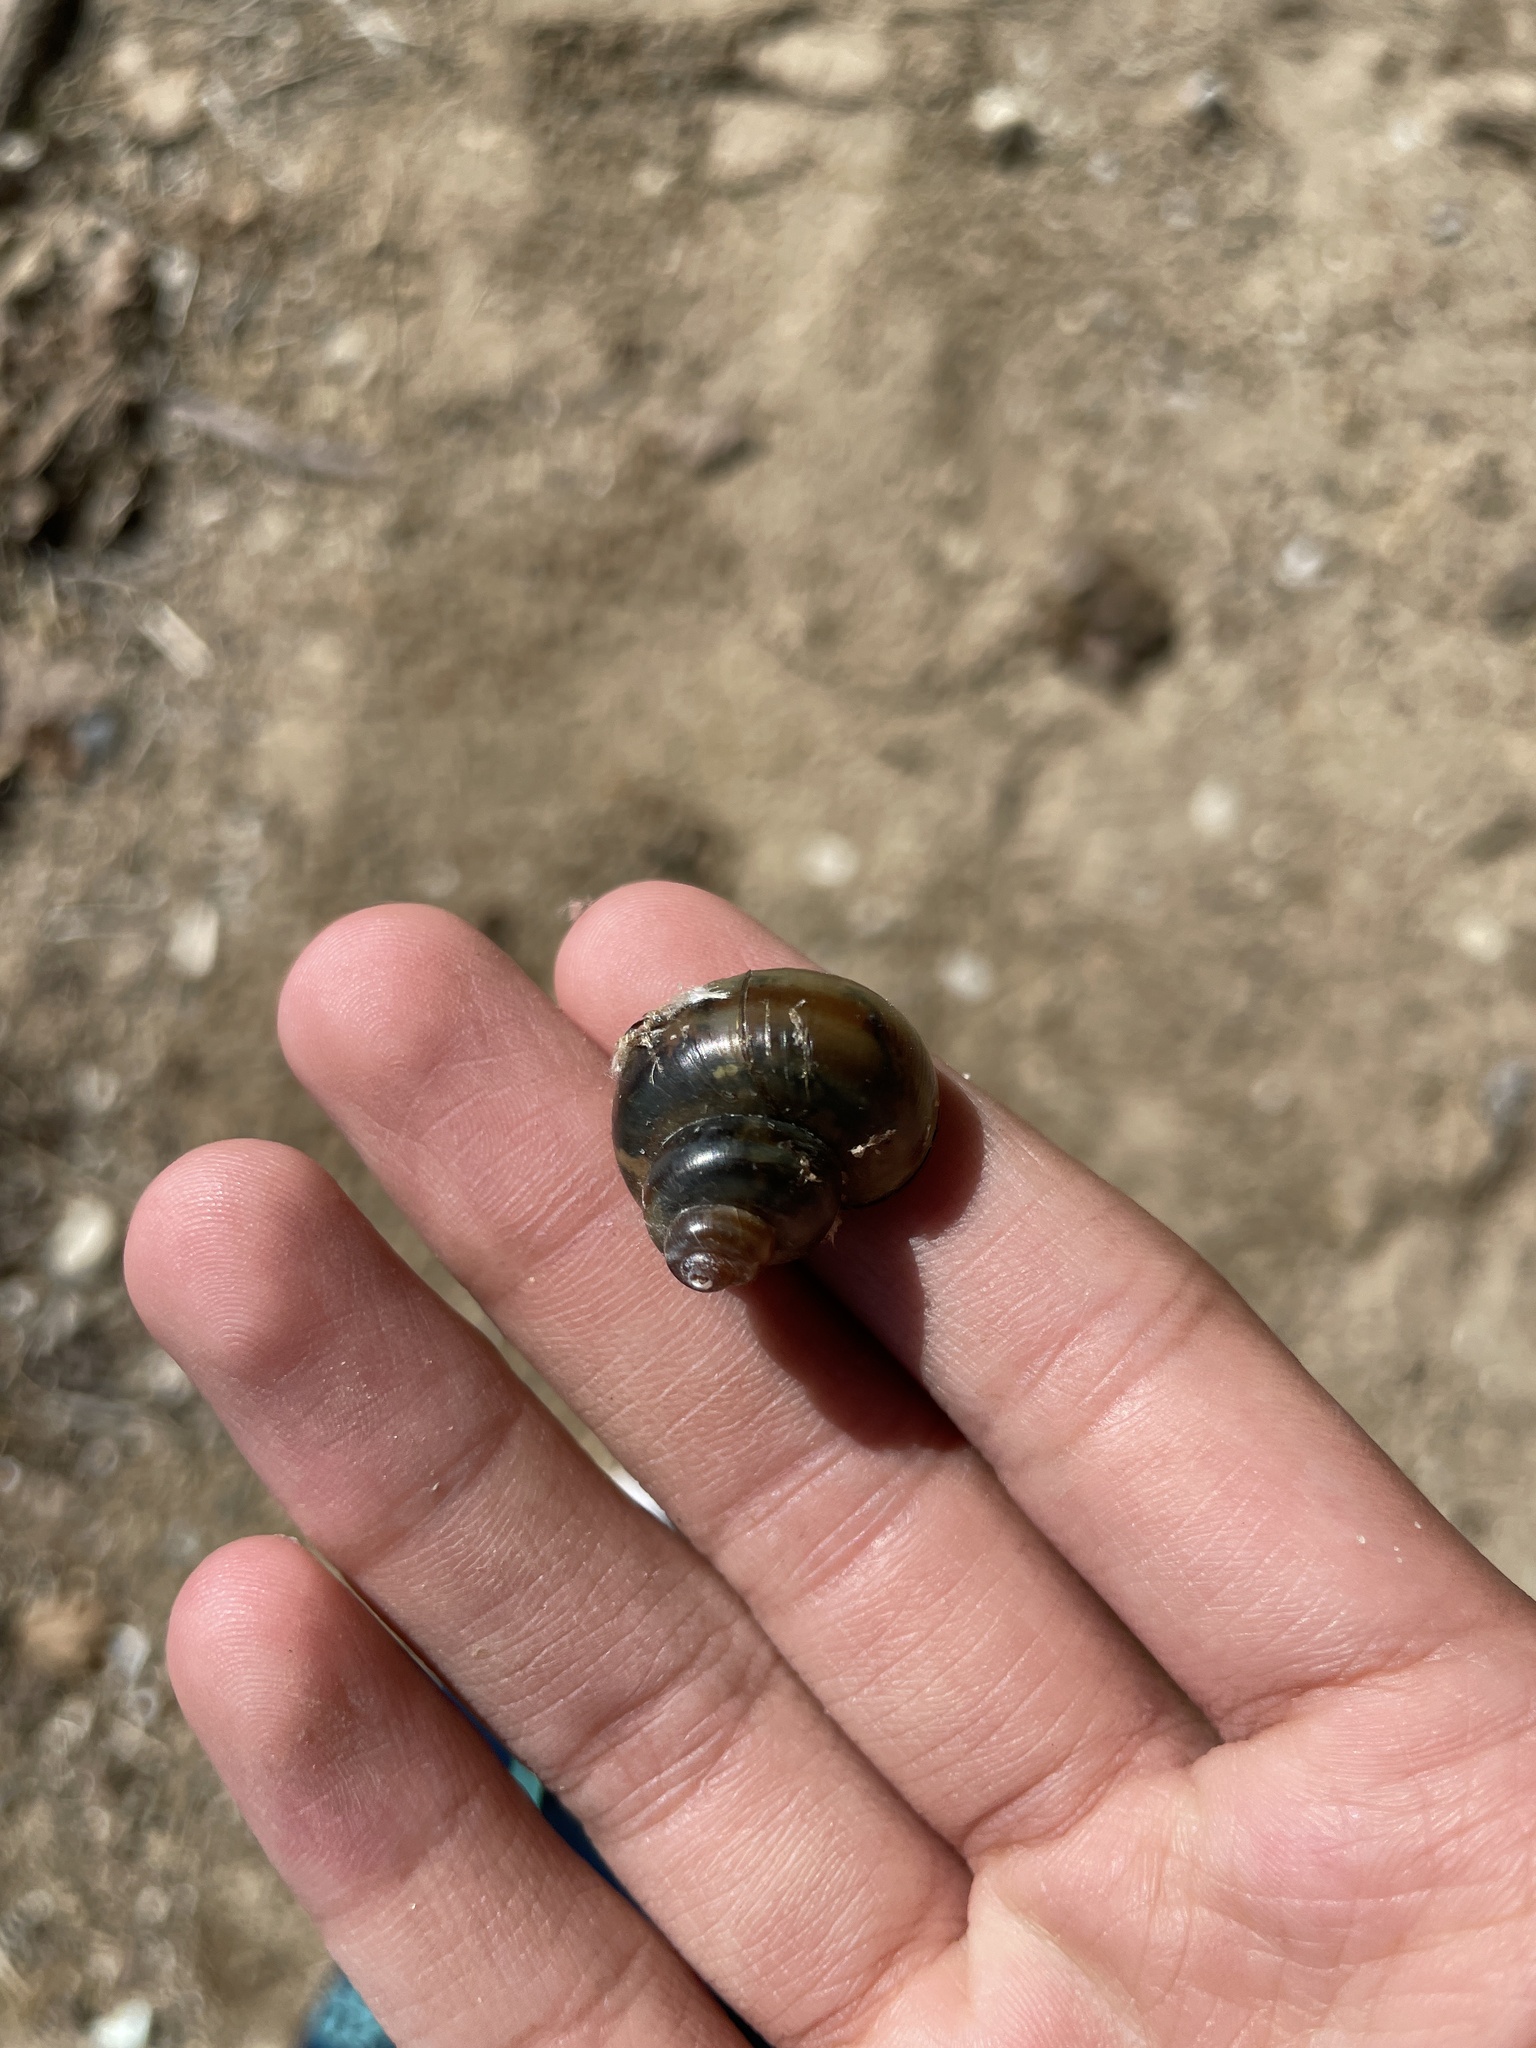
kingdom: Animalia
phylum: Mollusca
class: Gastropoda
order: Architaenioglossa
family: Viviparidae
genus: Callinina
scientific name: Callinina georgiana
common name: Banded mystery snail
